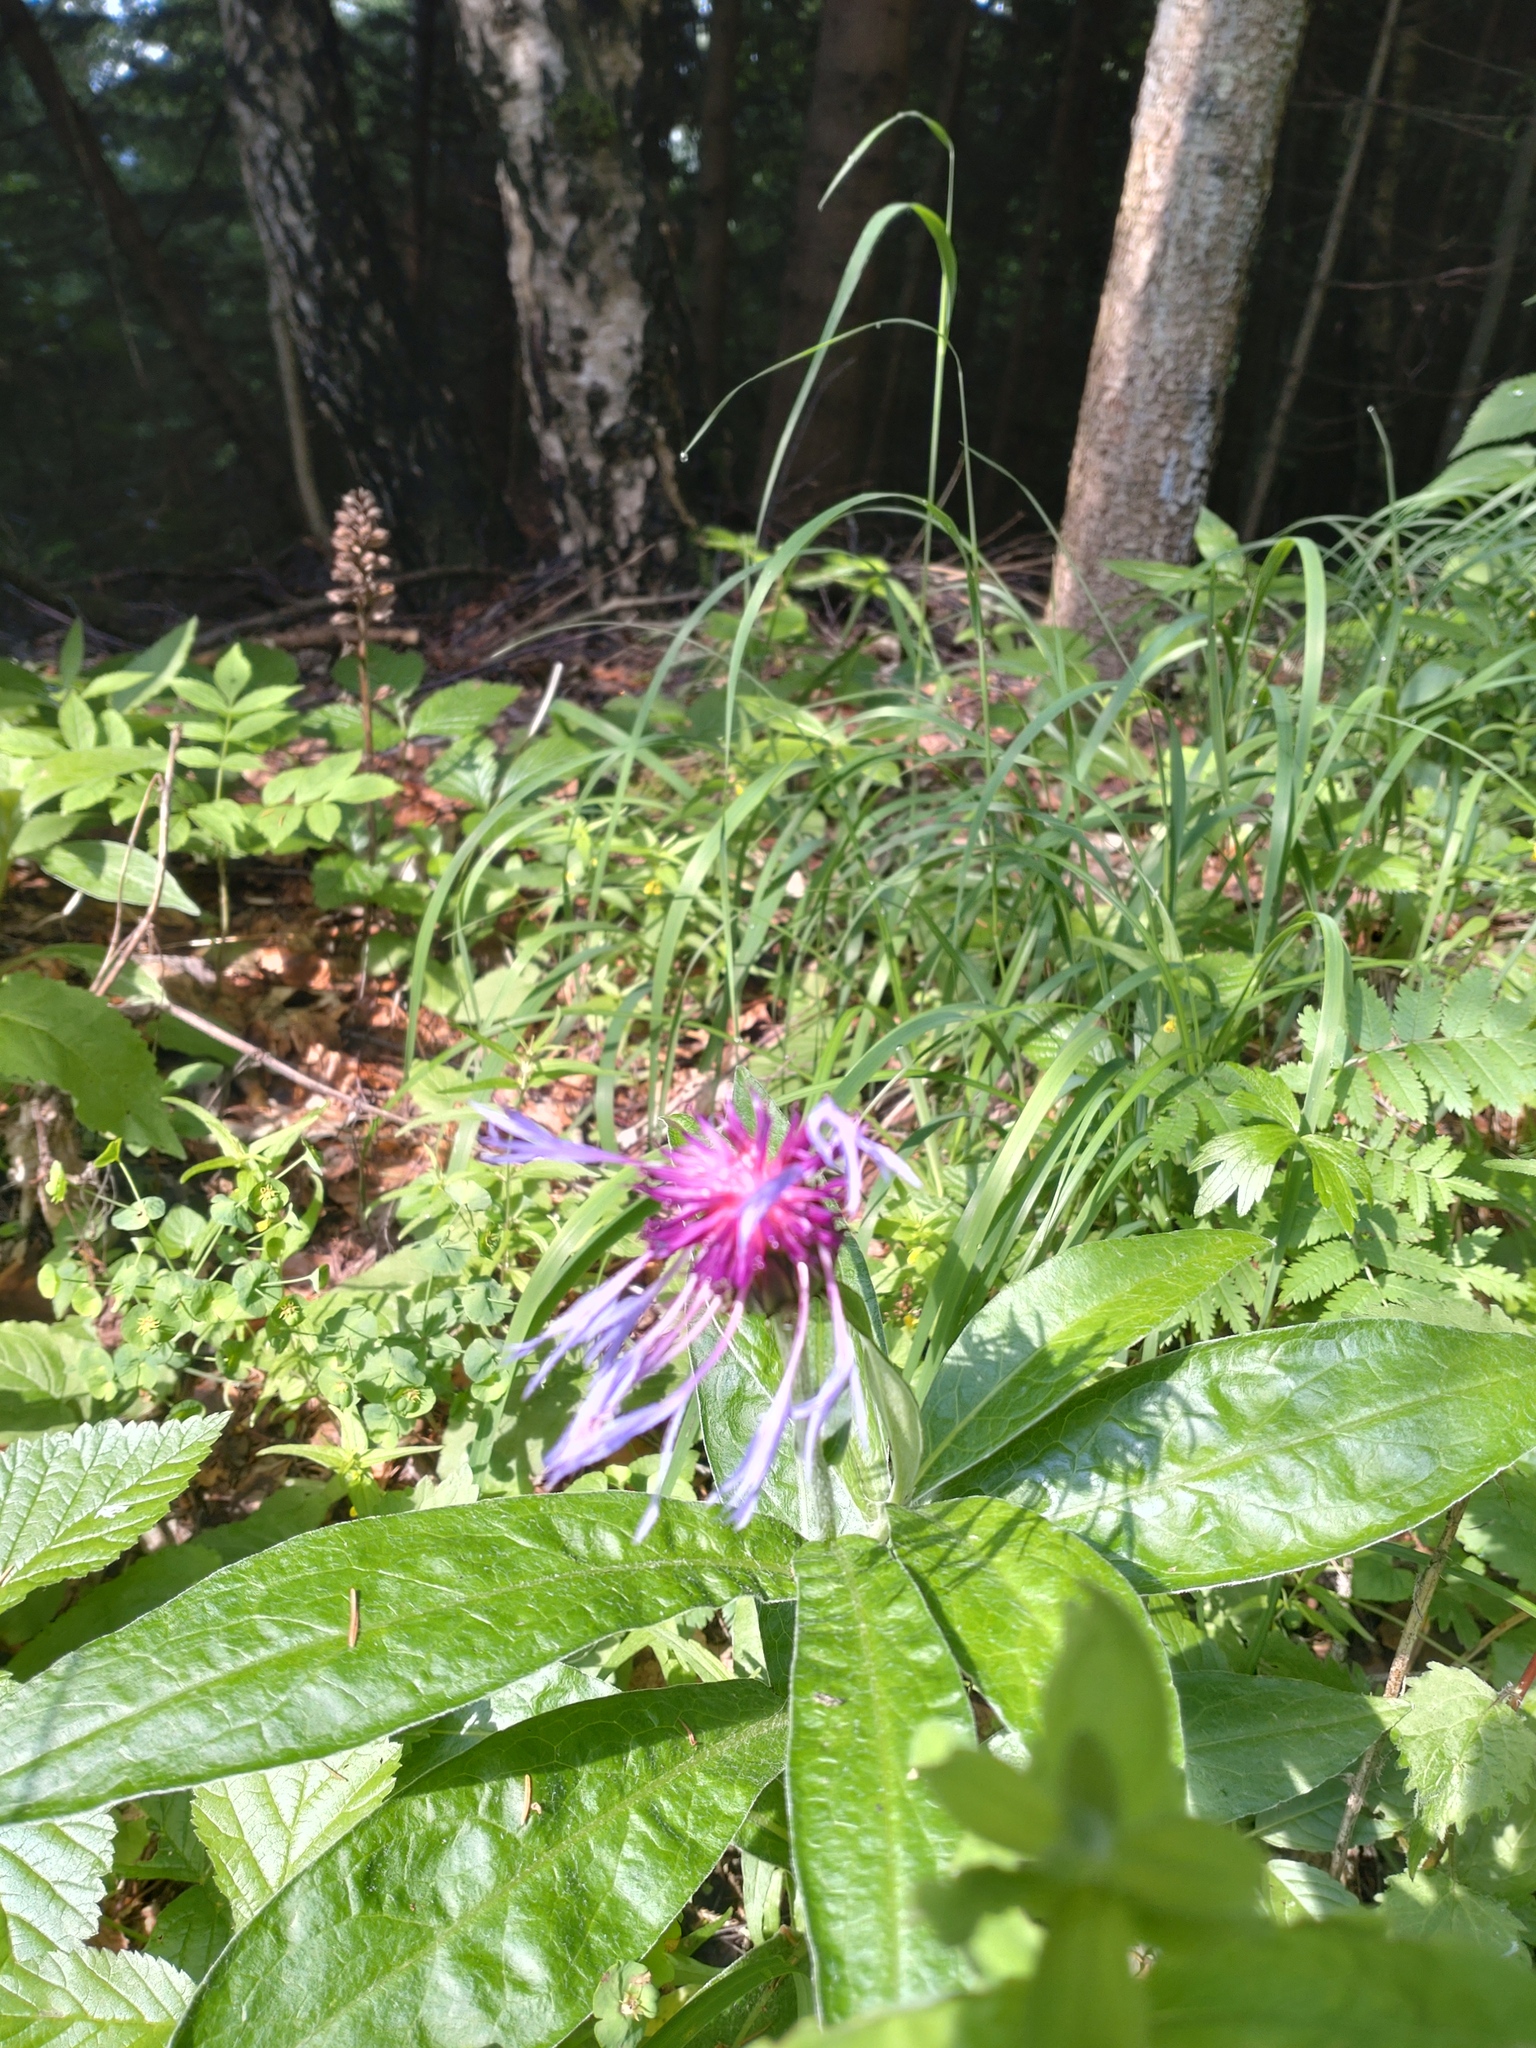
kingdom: Plantae
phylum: Tracheophyta
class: Magnoliopsida
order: Asterales
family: Asteraceae
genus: Centaurea
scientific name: Centaurea montana
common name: Perennial cornflower
